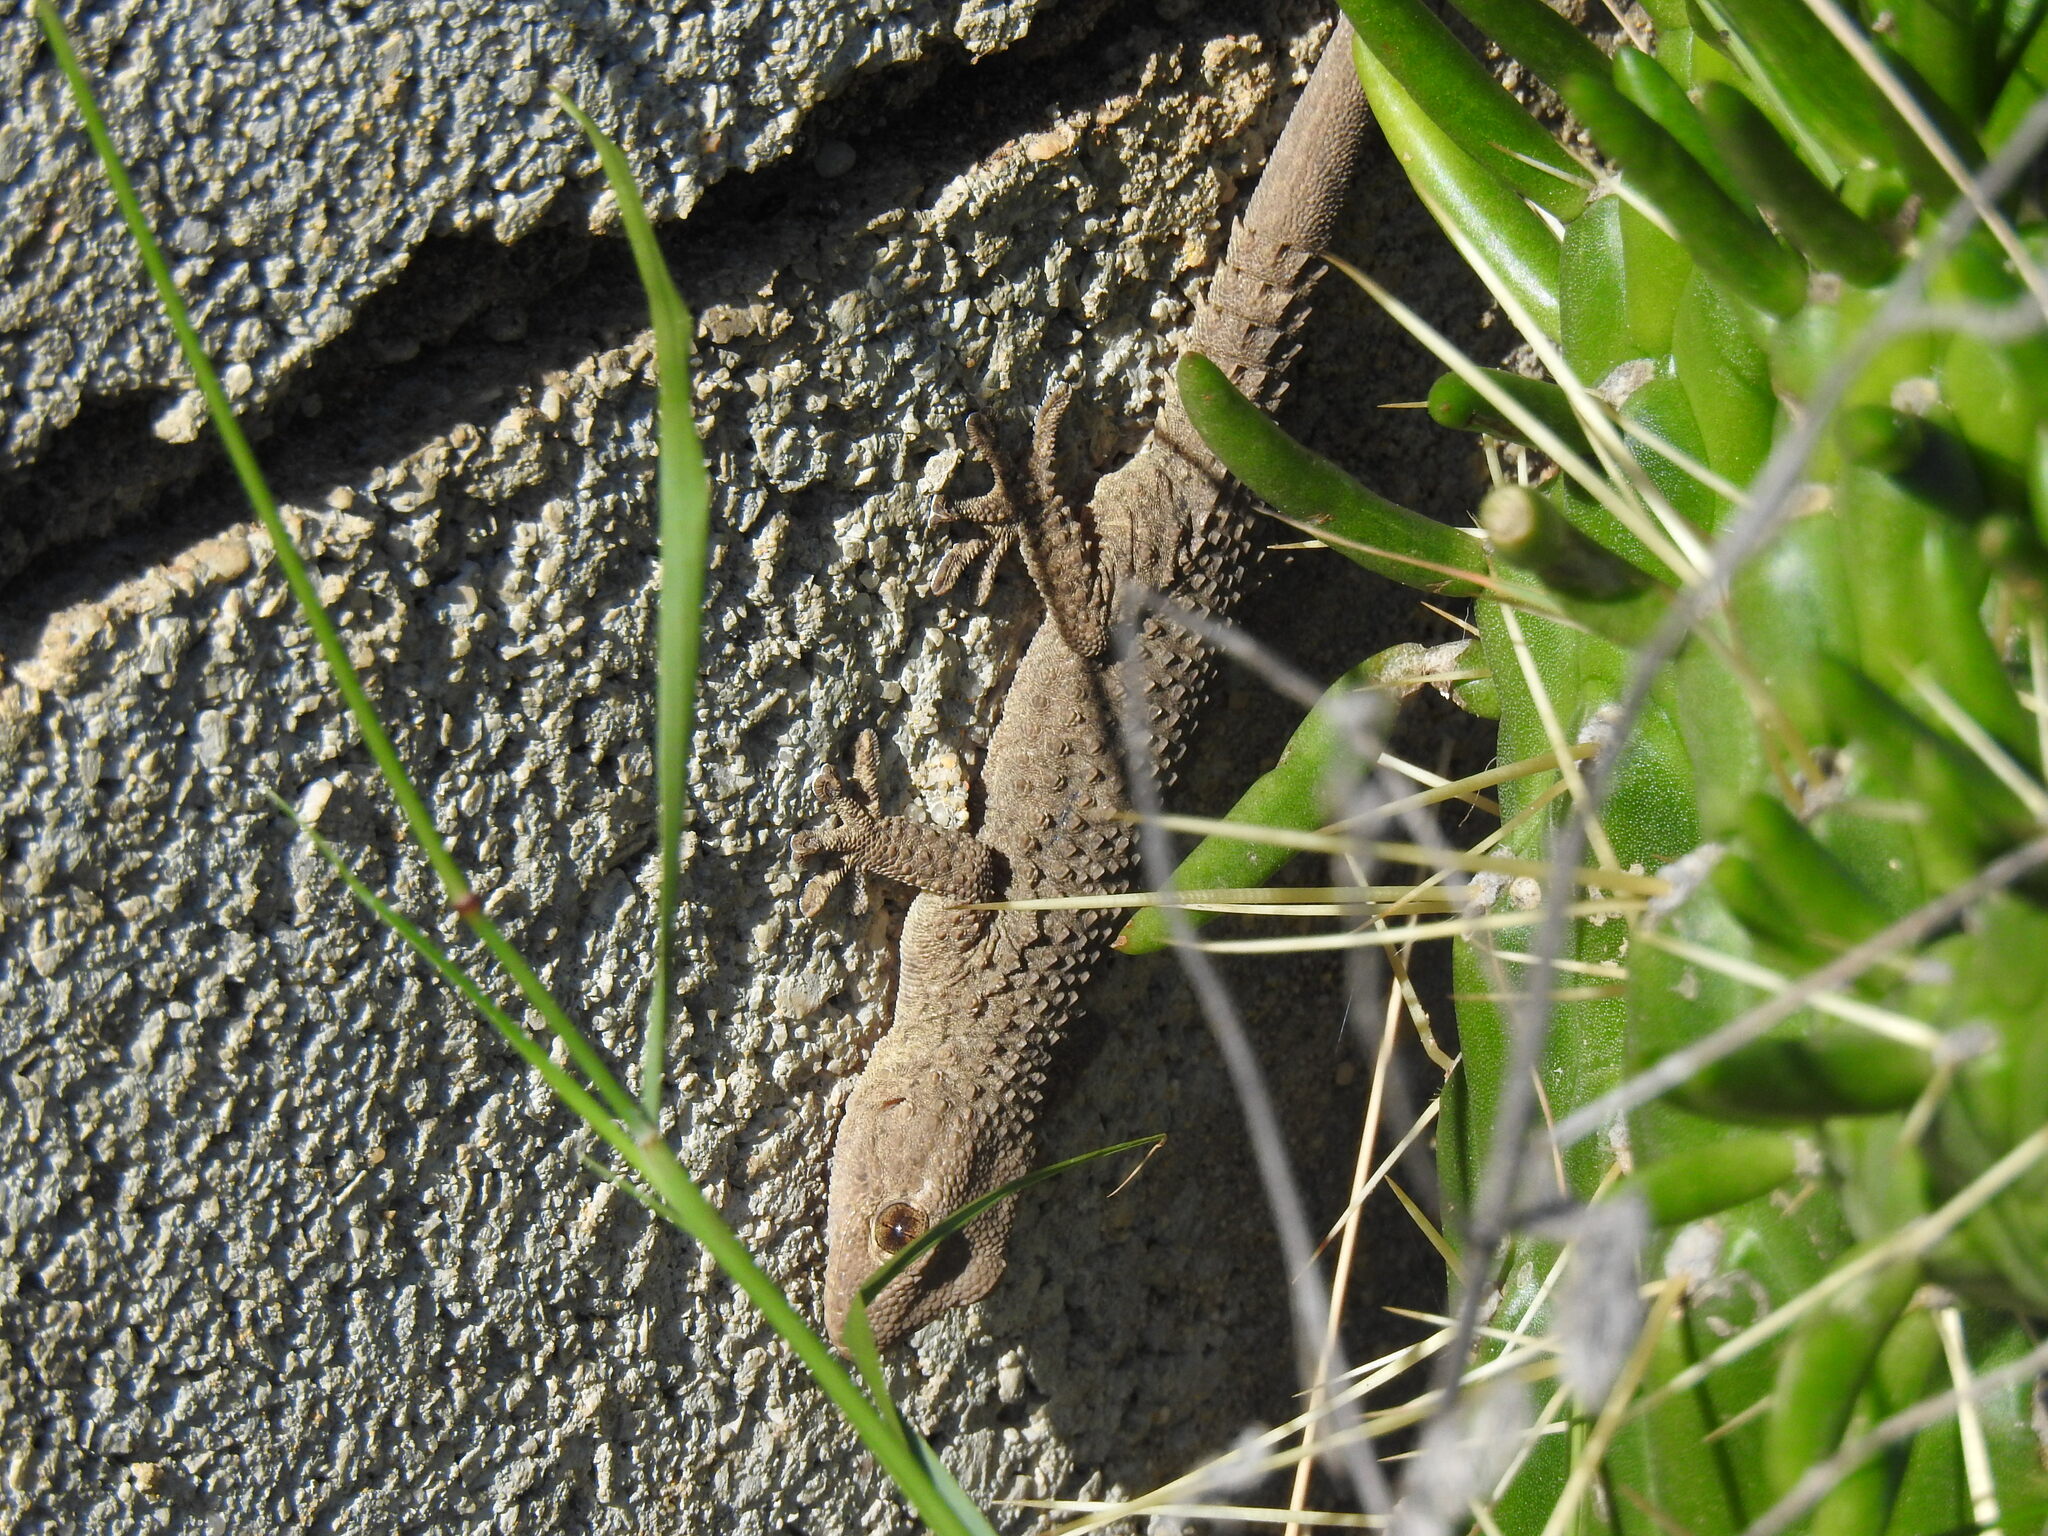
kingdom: Animalia
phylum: Chordata
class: Squamata
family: Phyllodactylidae
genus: Tarentola
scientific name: Tarentola mauritanica
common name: Moorish gecko
